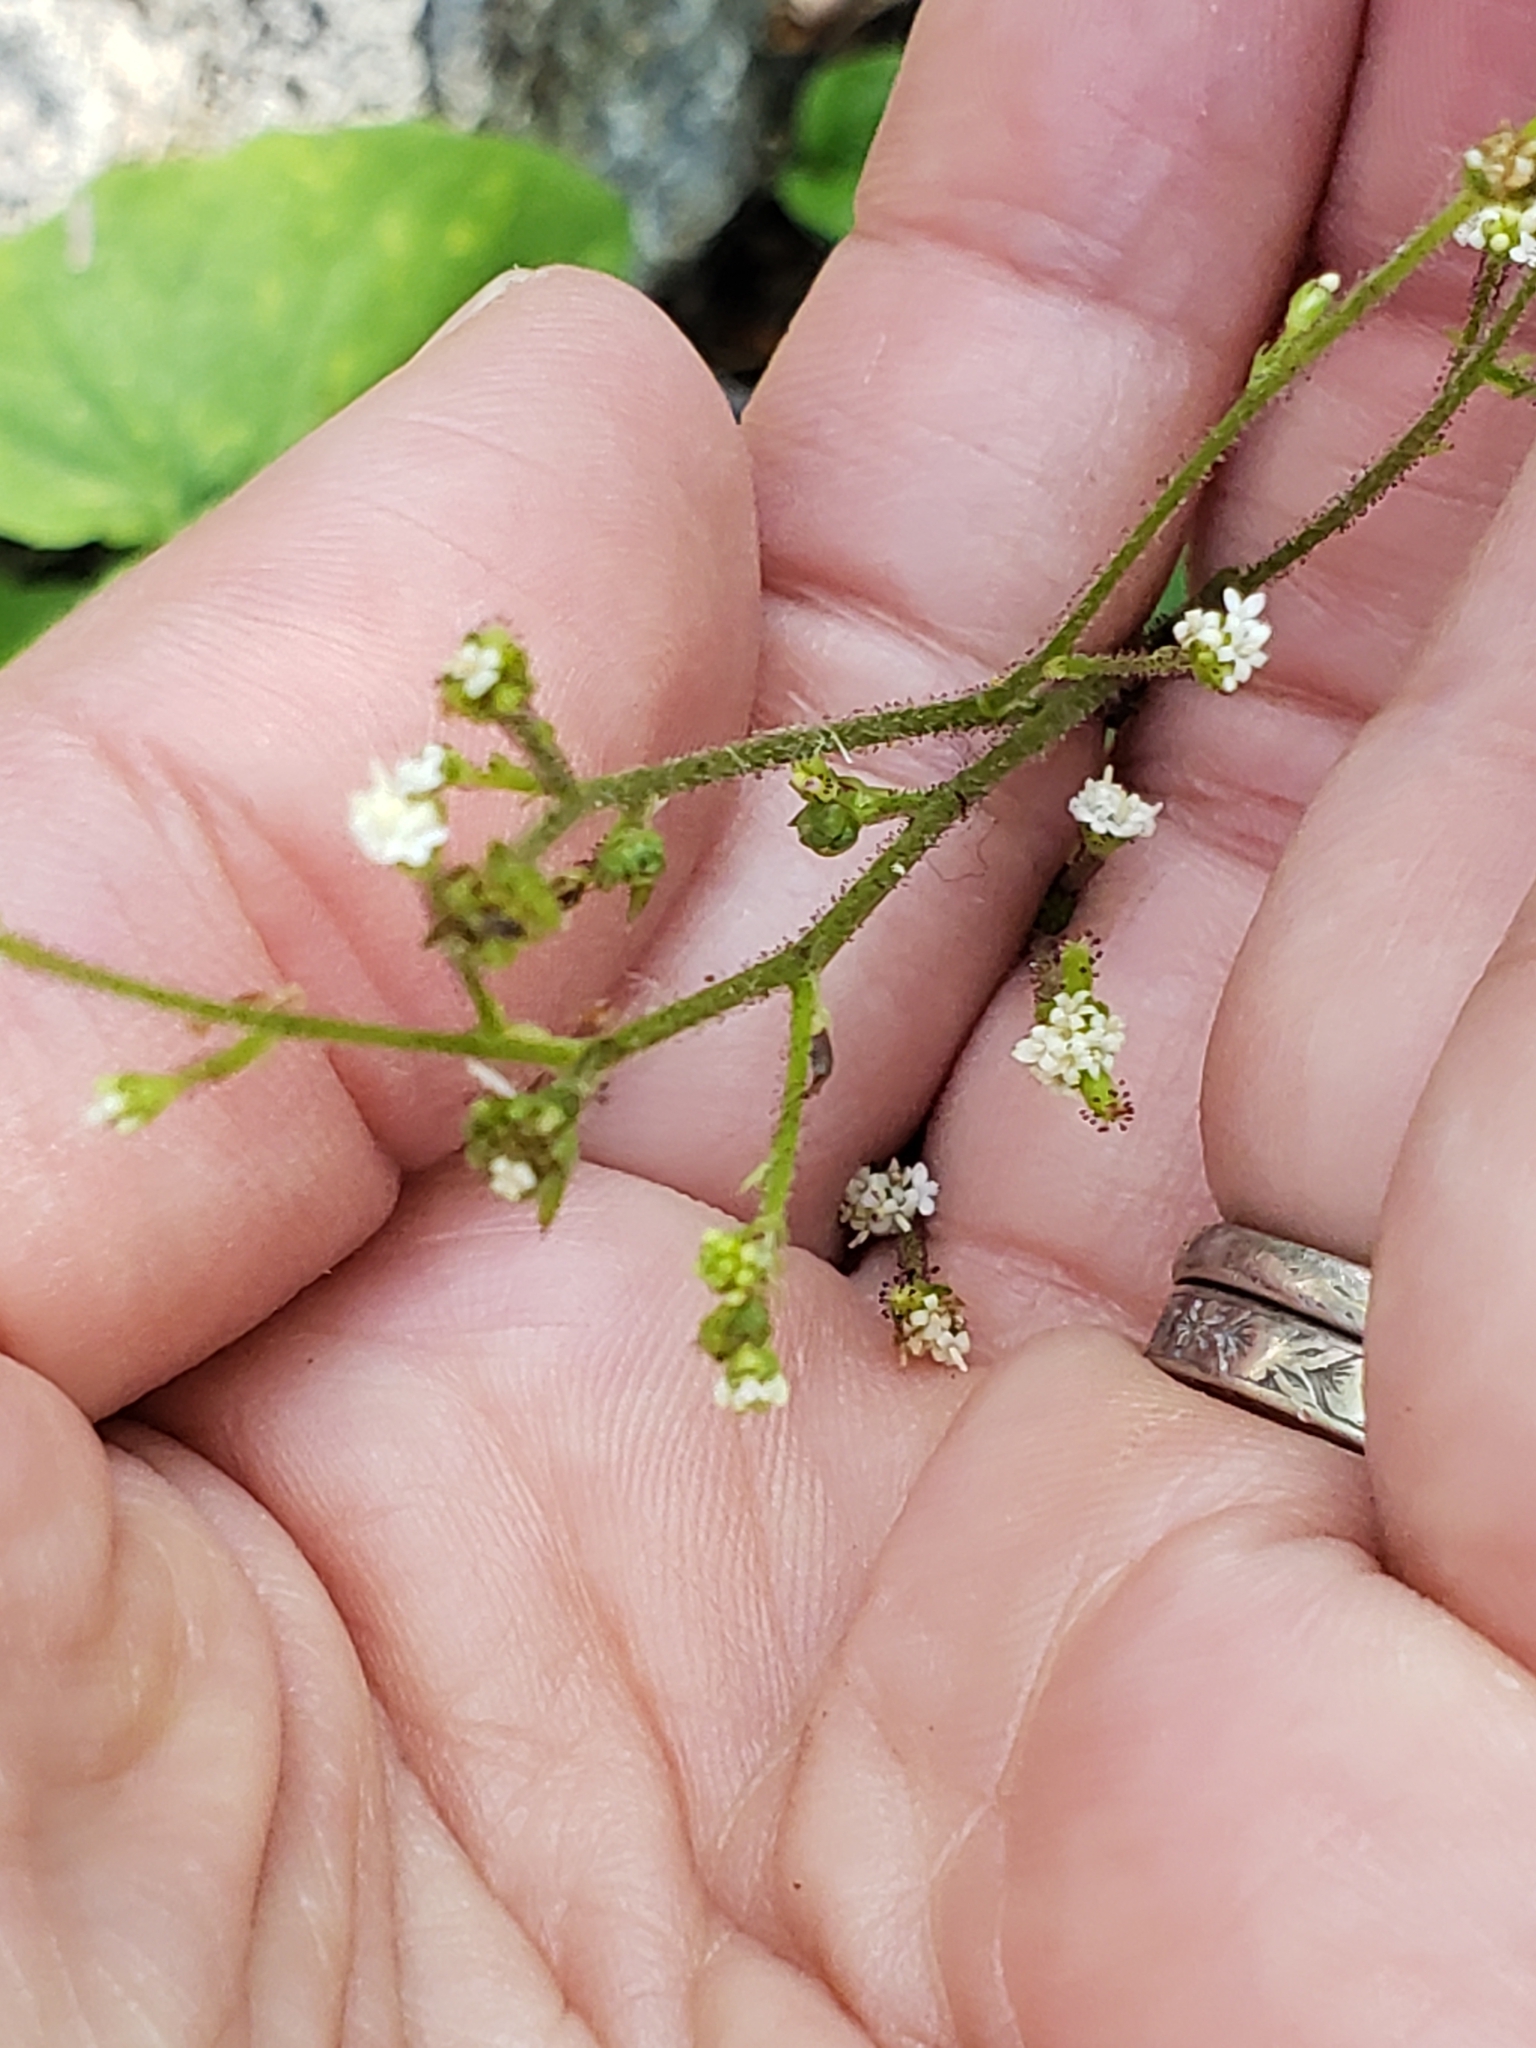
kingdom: Plantae
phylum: Tracheophyta
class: Magnoliopsida
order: Asterales
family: Asteraceae
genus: Adenocaulon
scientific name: Adenocaulon bicolor
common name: Trailplant
